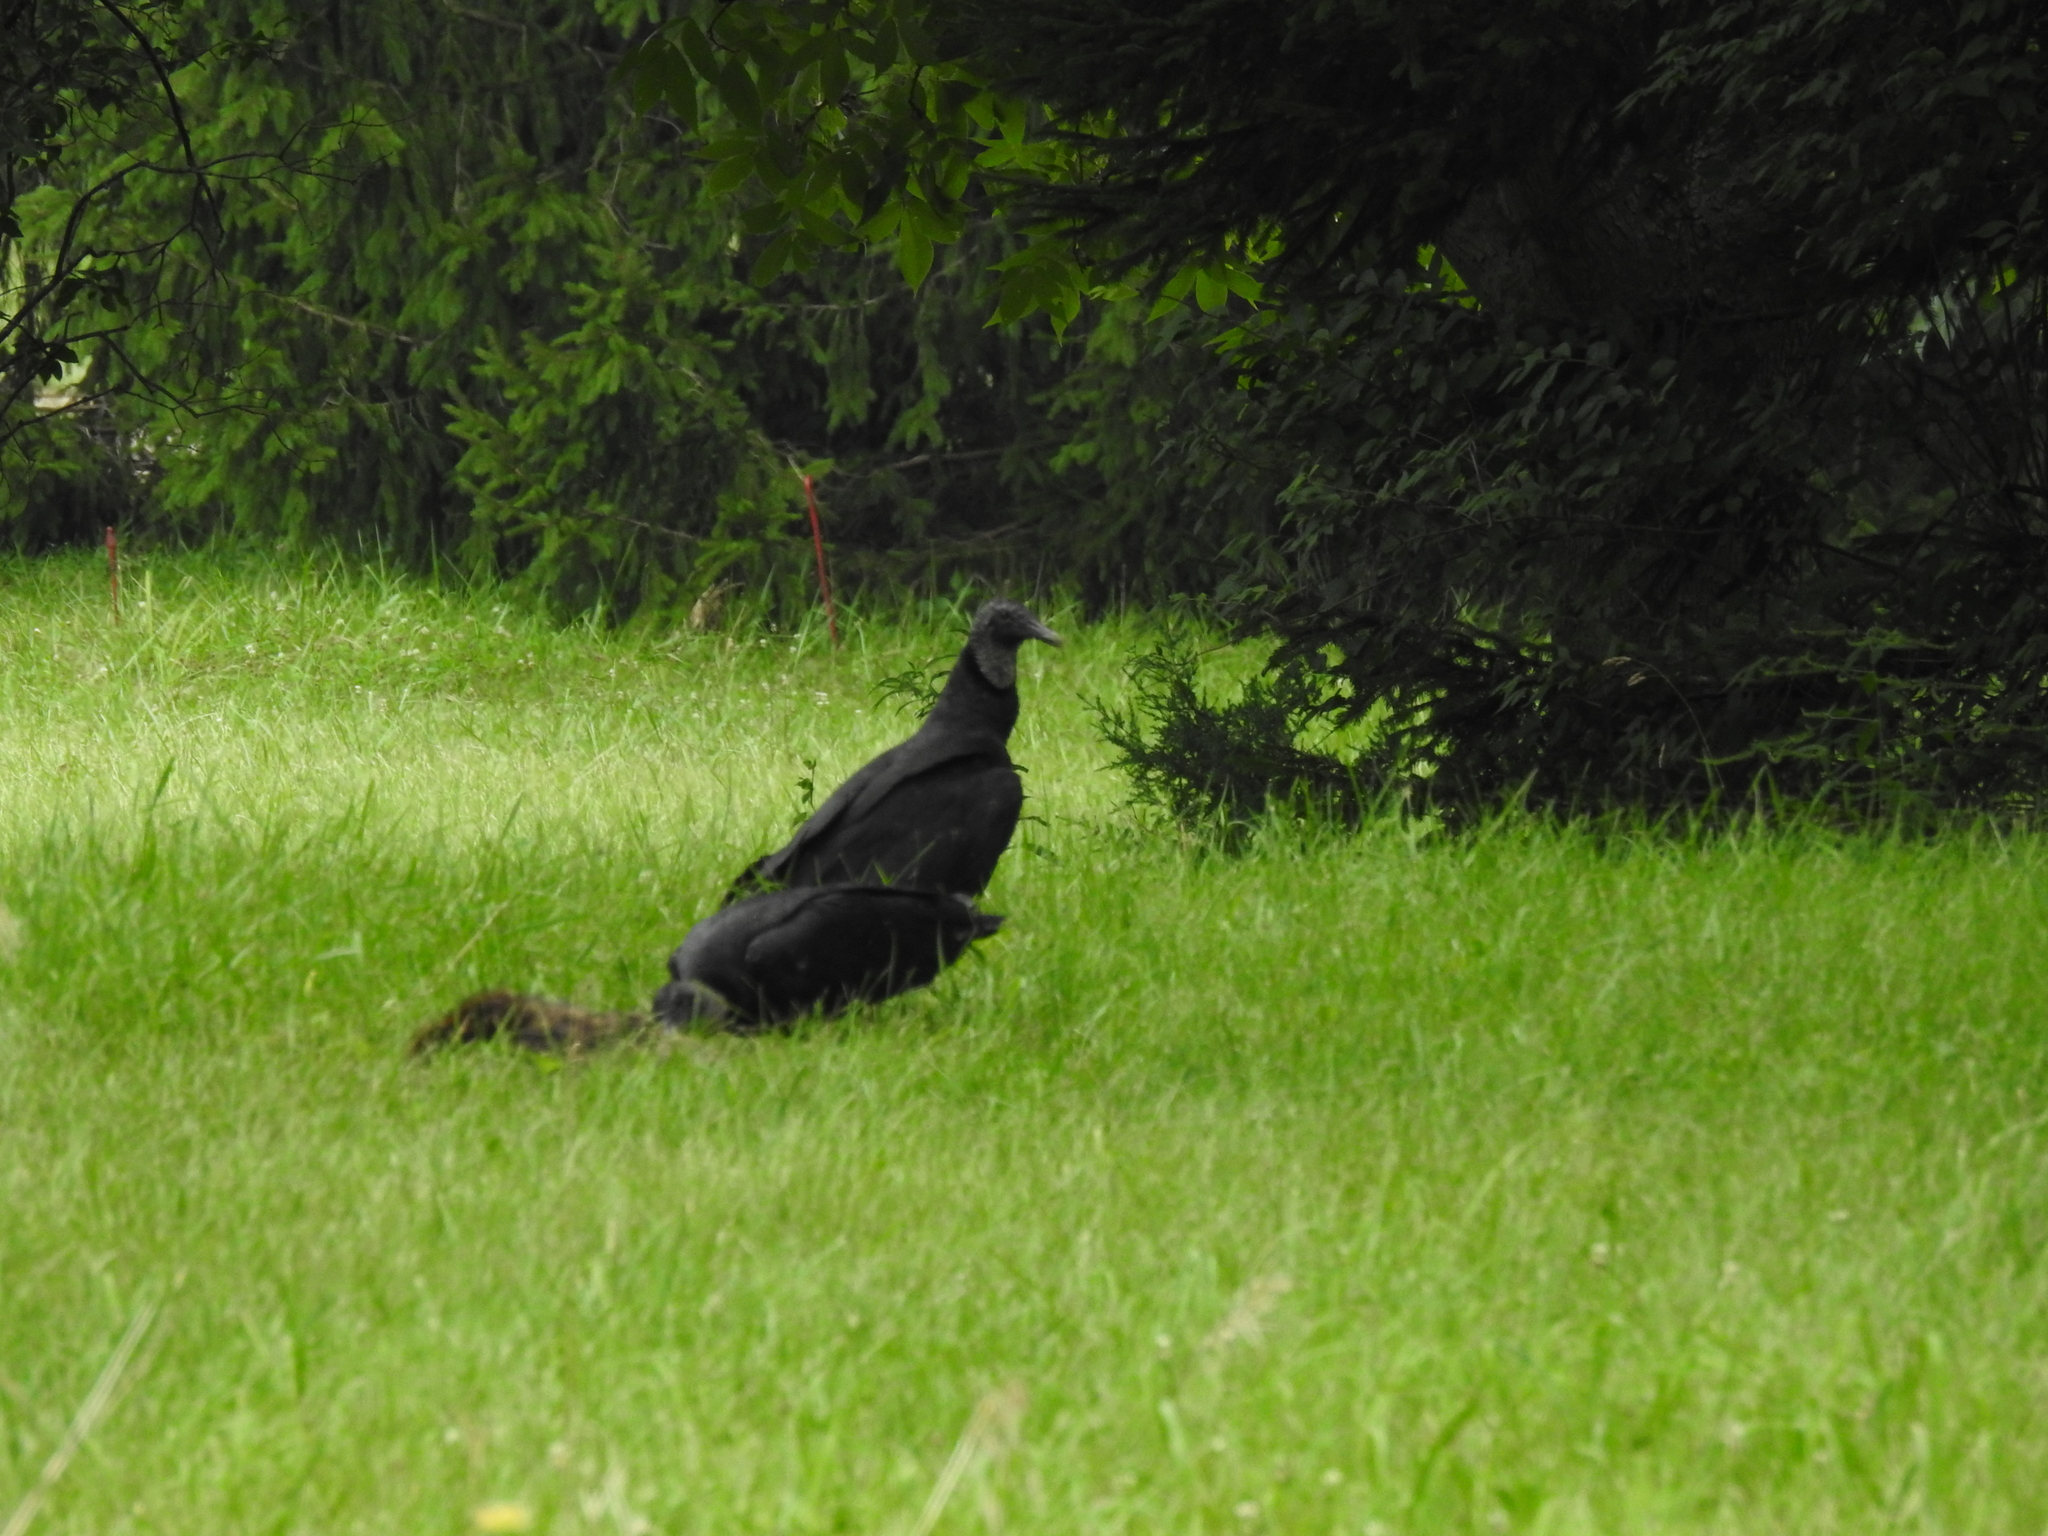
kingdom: Animalia
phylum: Chordata
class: Aves
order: Accipitriformes
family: Cathartidae
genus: Coragyps
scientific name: Coragyps atratus
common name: Black vulture
